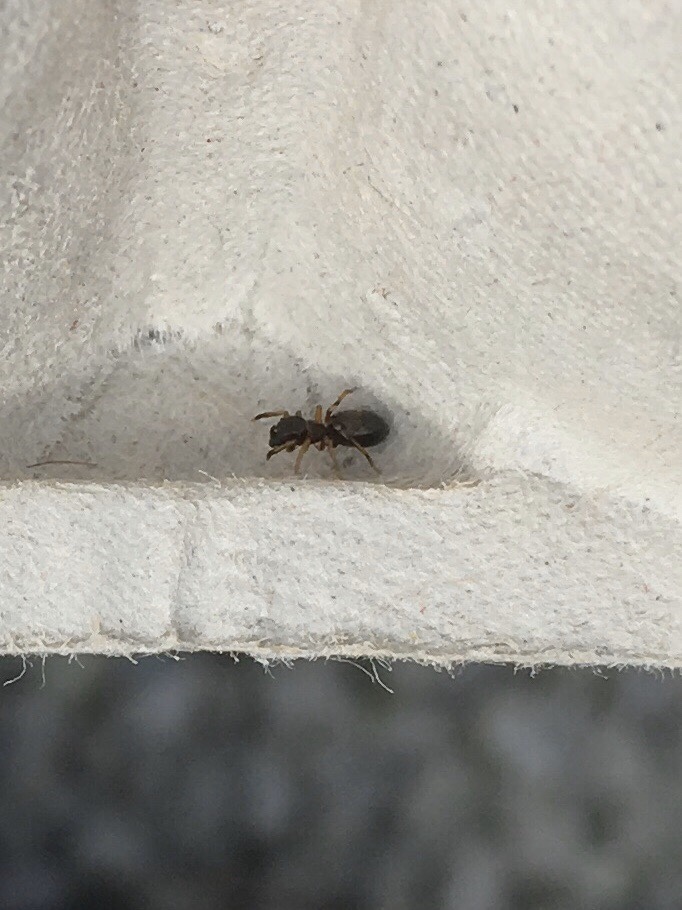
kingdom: Animalia
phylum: Arthropoda
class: Arachnida
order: Araneae
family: Salticidae
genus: Myrmarachne
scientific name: Myrmarachne formicaria
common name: Ant mimic jumping spider
